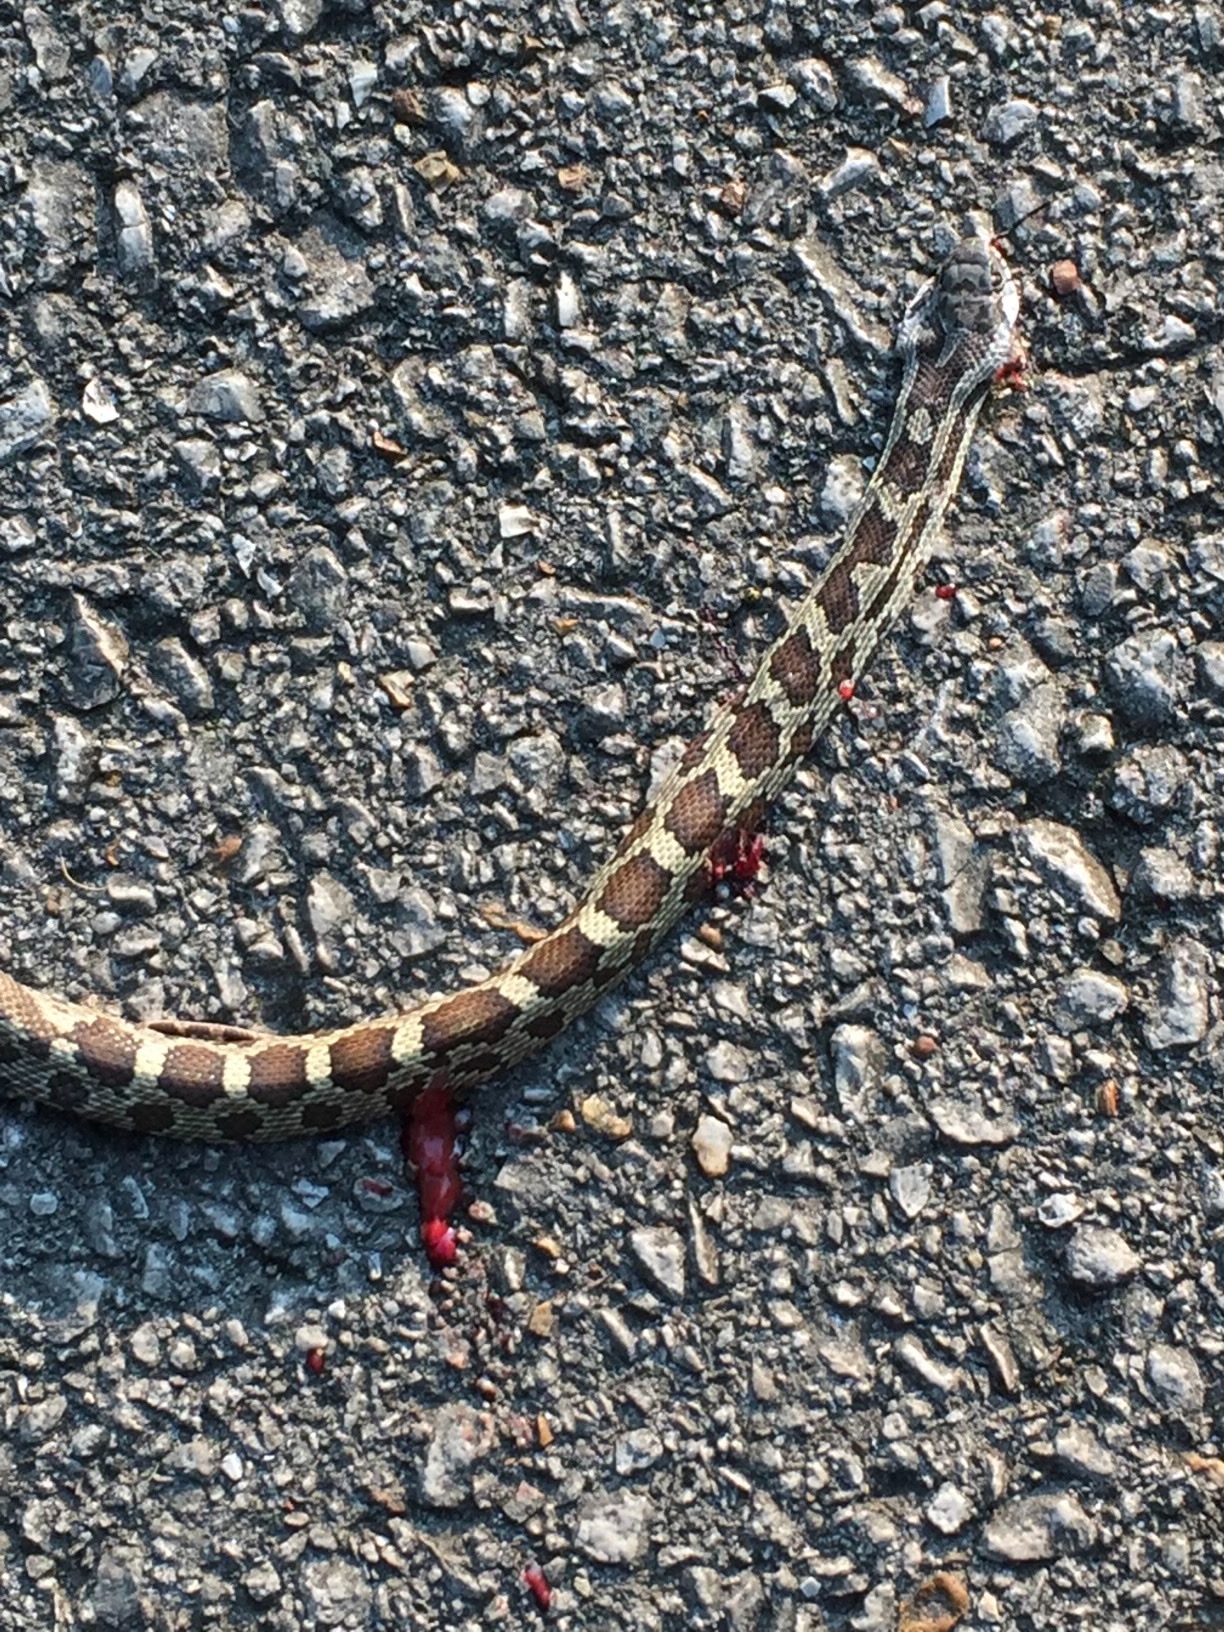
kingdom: Animalia
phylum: Chordata
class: Squamata
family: Colubridae
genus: Pantherophis
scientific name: Pantherophis spiloides
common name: Gray rat snake
